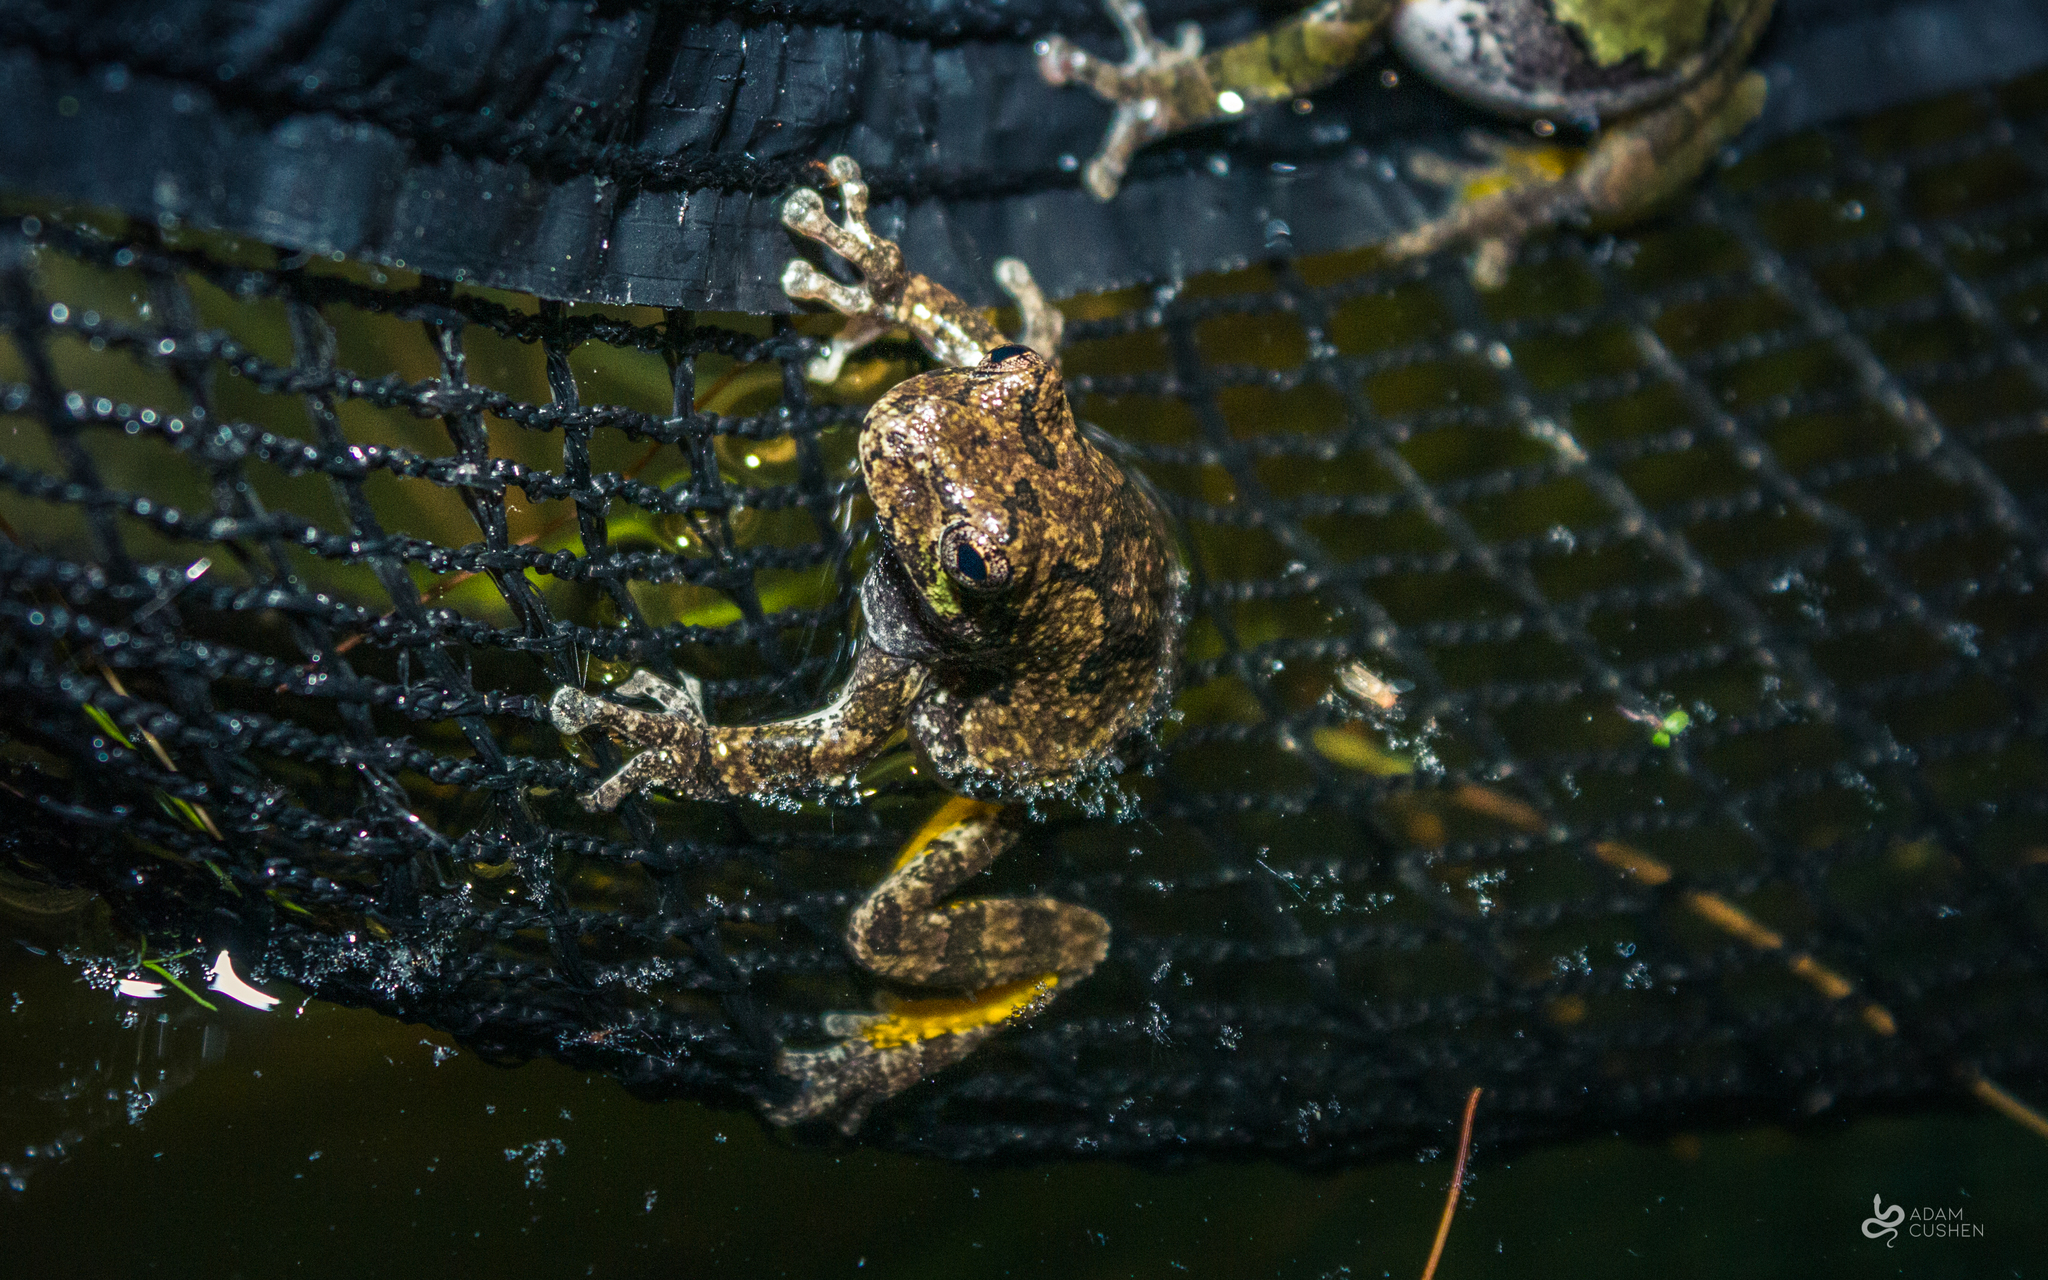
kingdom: Animalia
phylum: Chordata
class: Amphibia
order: Anura
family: Hylidae
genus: Dryophytes
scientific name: Dryophytes versicolor
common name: Gray treefrog
